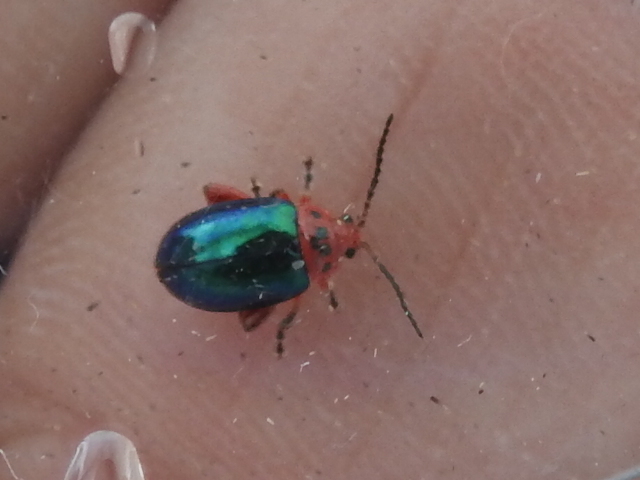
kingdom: Animalia
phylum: Arthropoda
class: Insecta
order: Coleoptera
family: Chrysomelidae
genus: Kuschelina
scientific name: Kuschelina gibbitarsa
